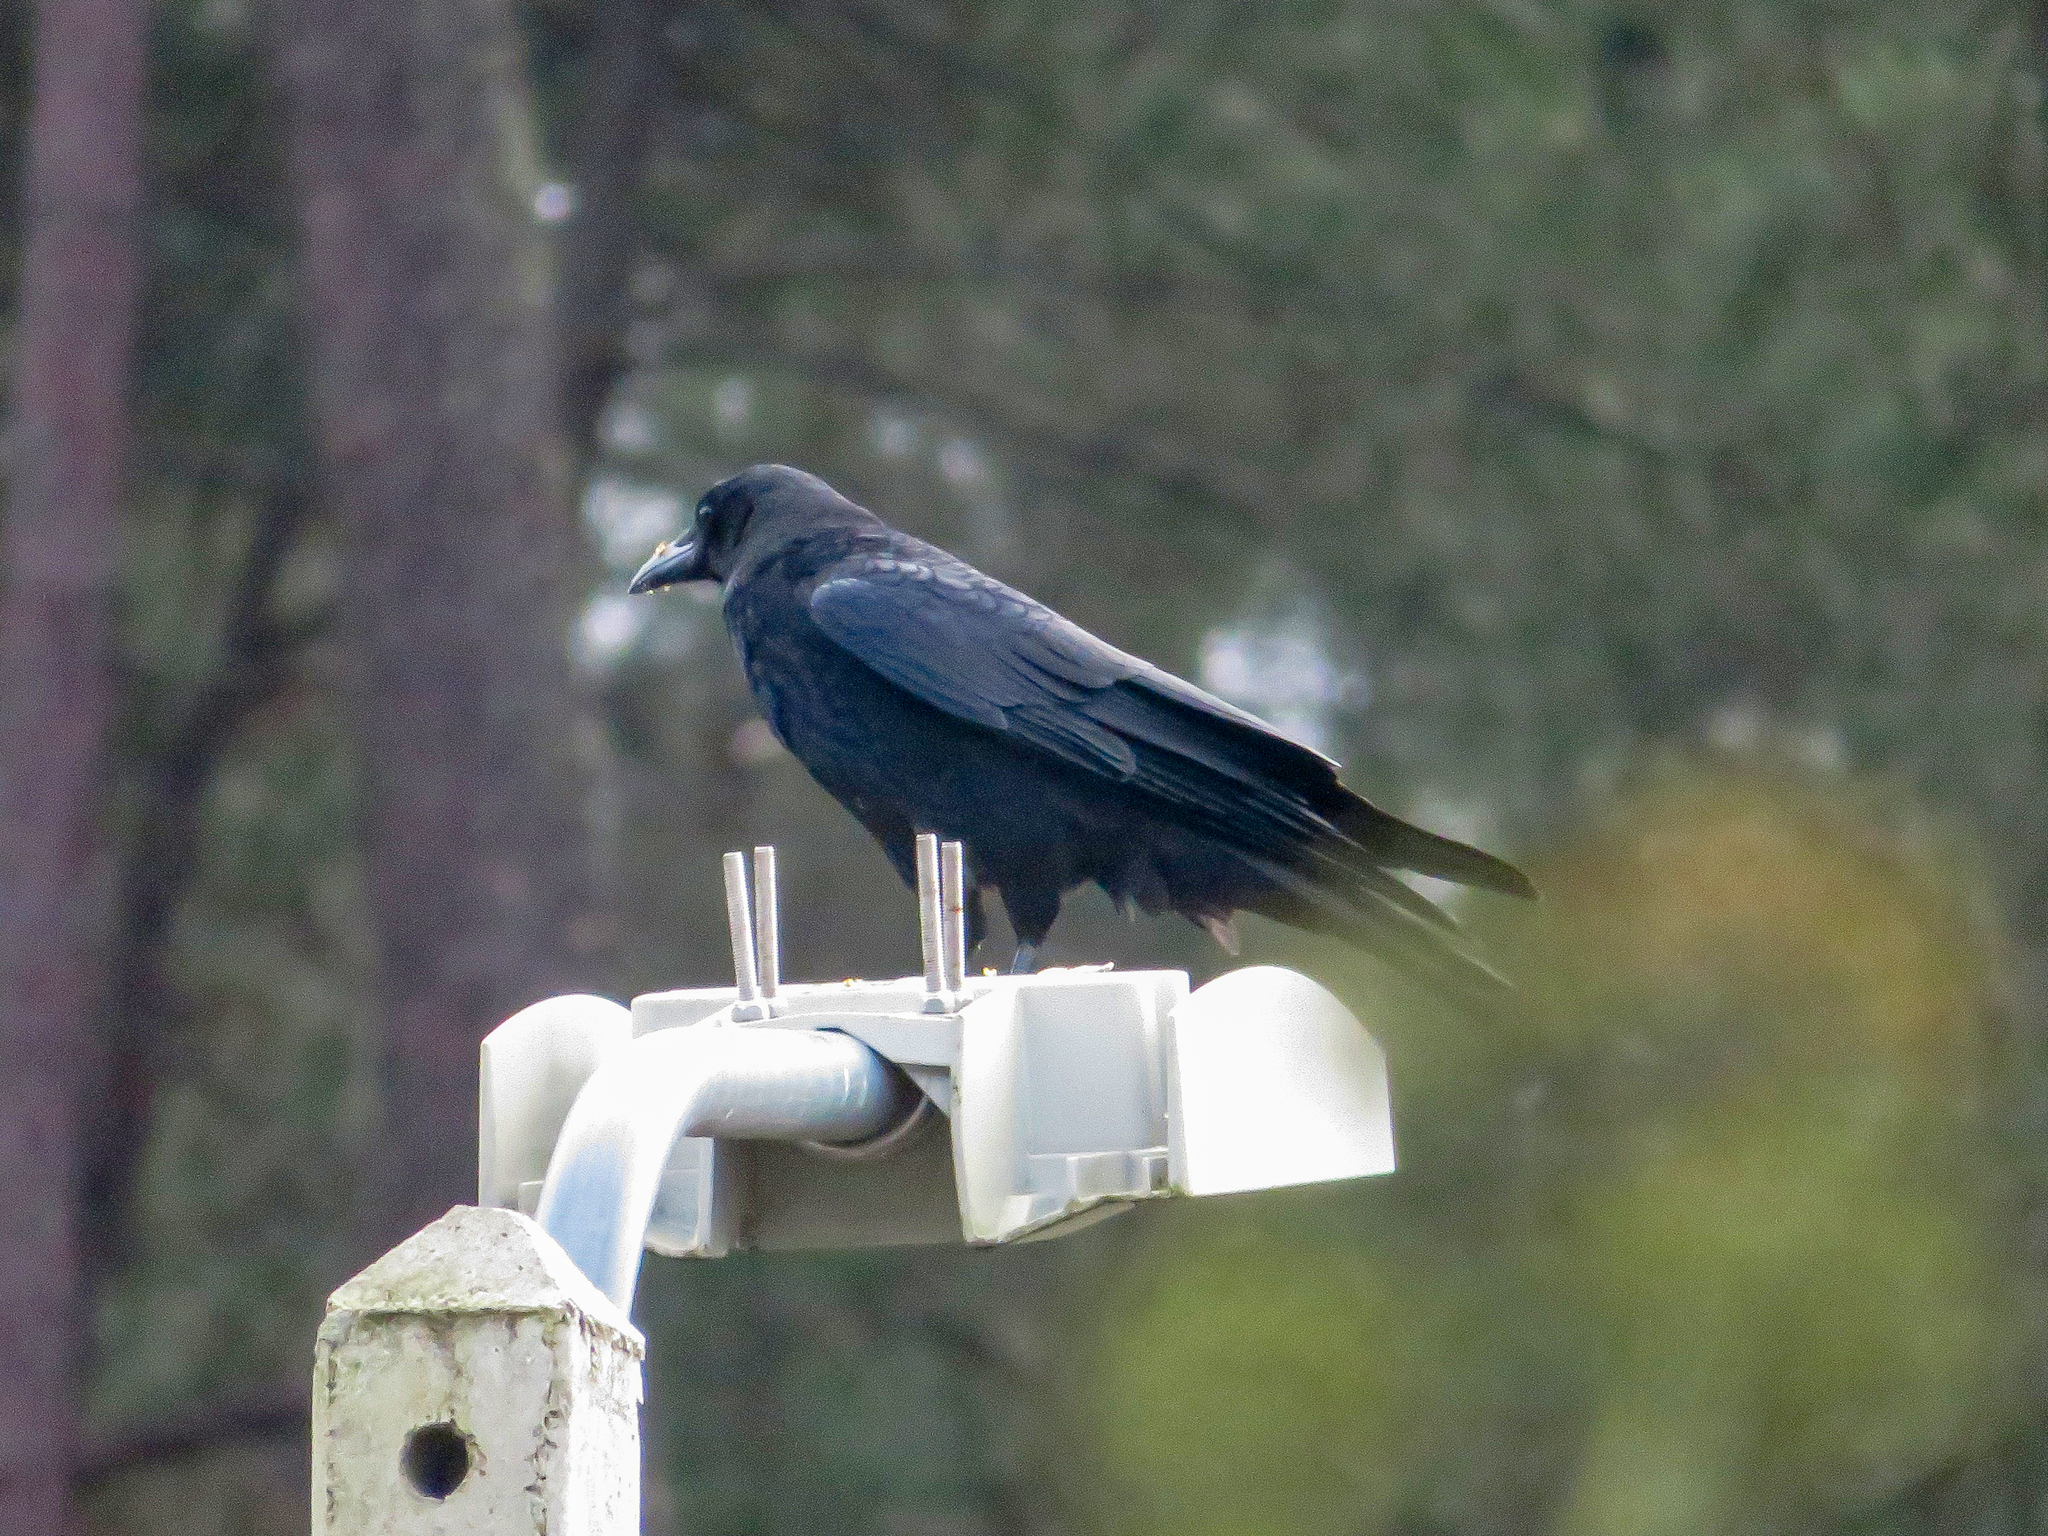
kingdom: Animalia
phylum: Chordata
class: Aves
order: Passeriformes
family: Corvidae
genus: Corvus
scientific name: Corvus corone
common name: Carrion crow
